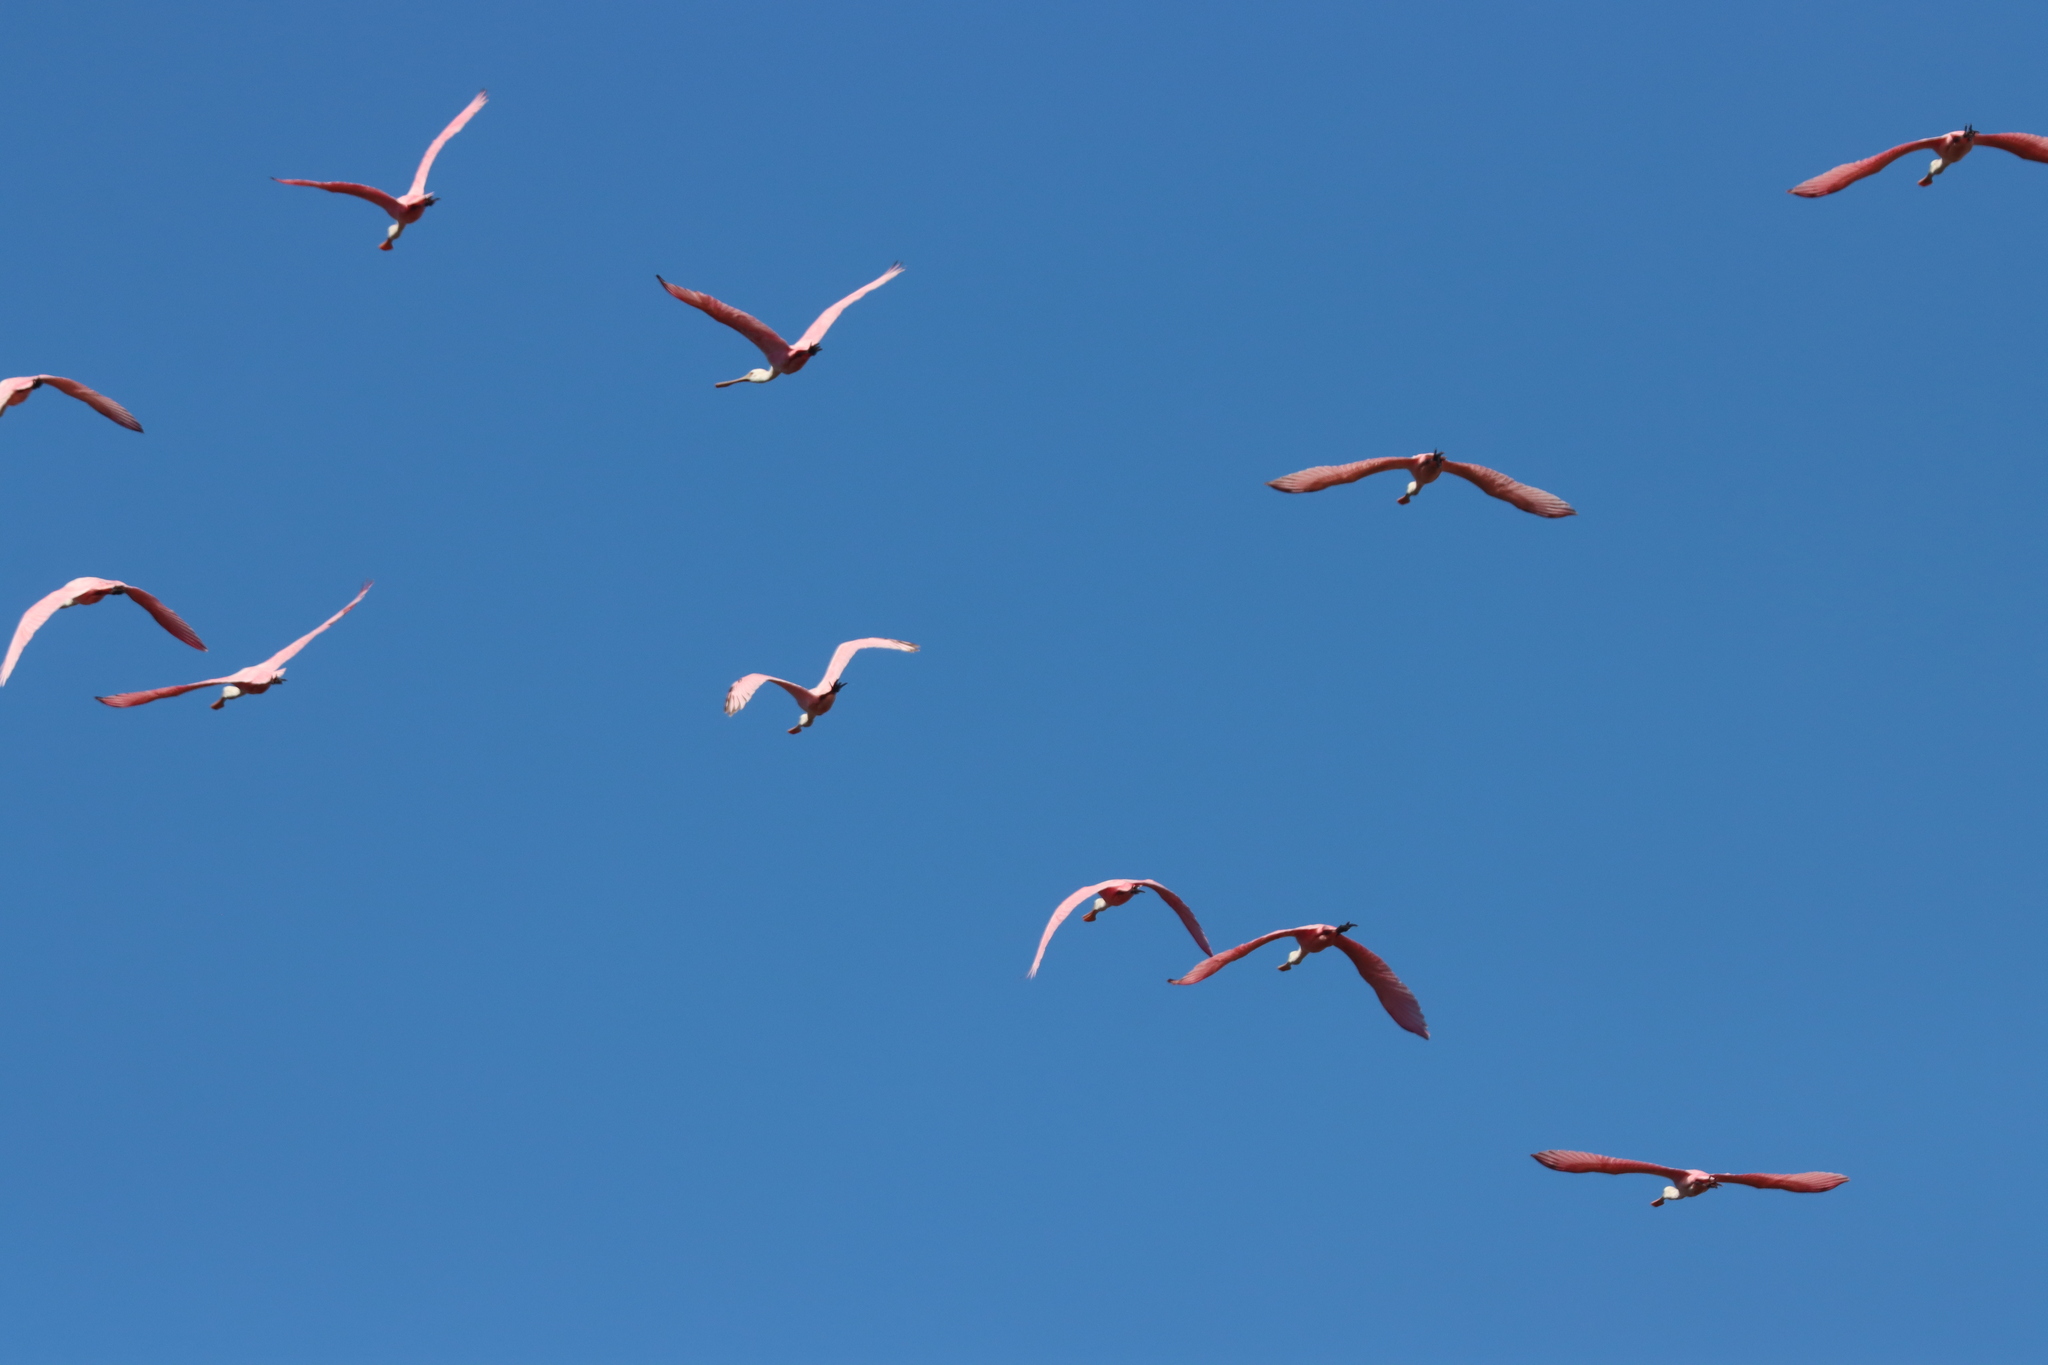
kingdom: Animalia
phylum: Chordata
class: Aves
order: Pelecaniformes
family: Threskiornithidae
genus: Platalea
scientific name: Platalea ajaja
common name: Roseate spoonbill
